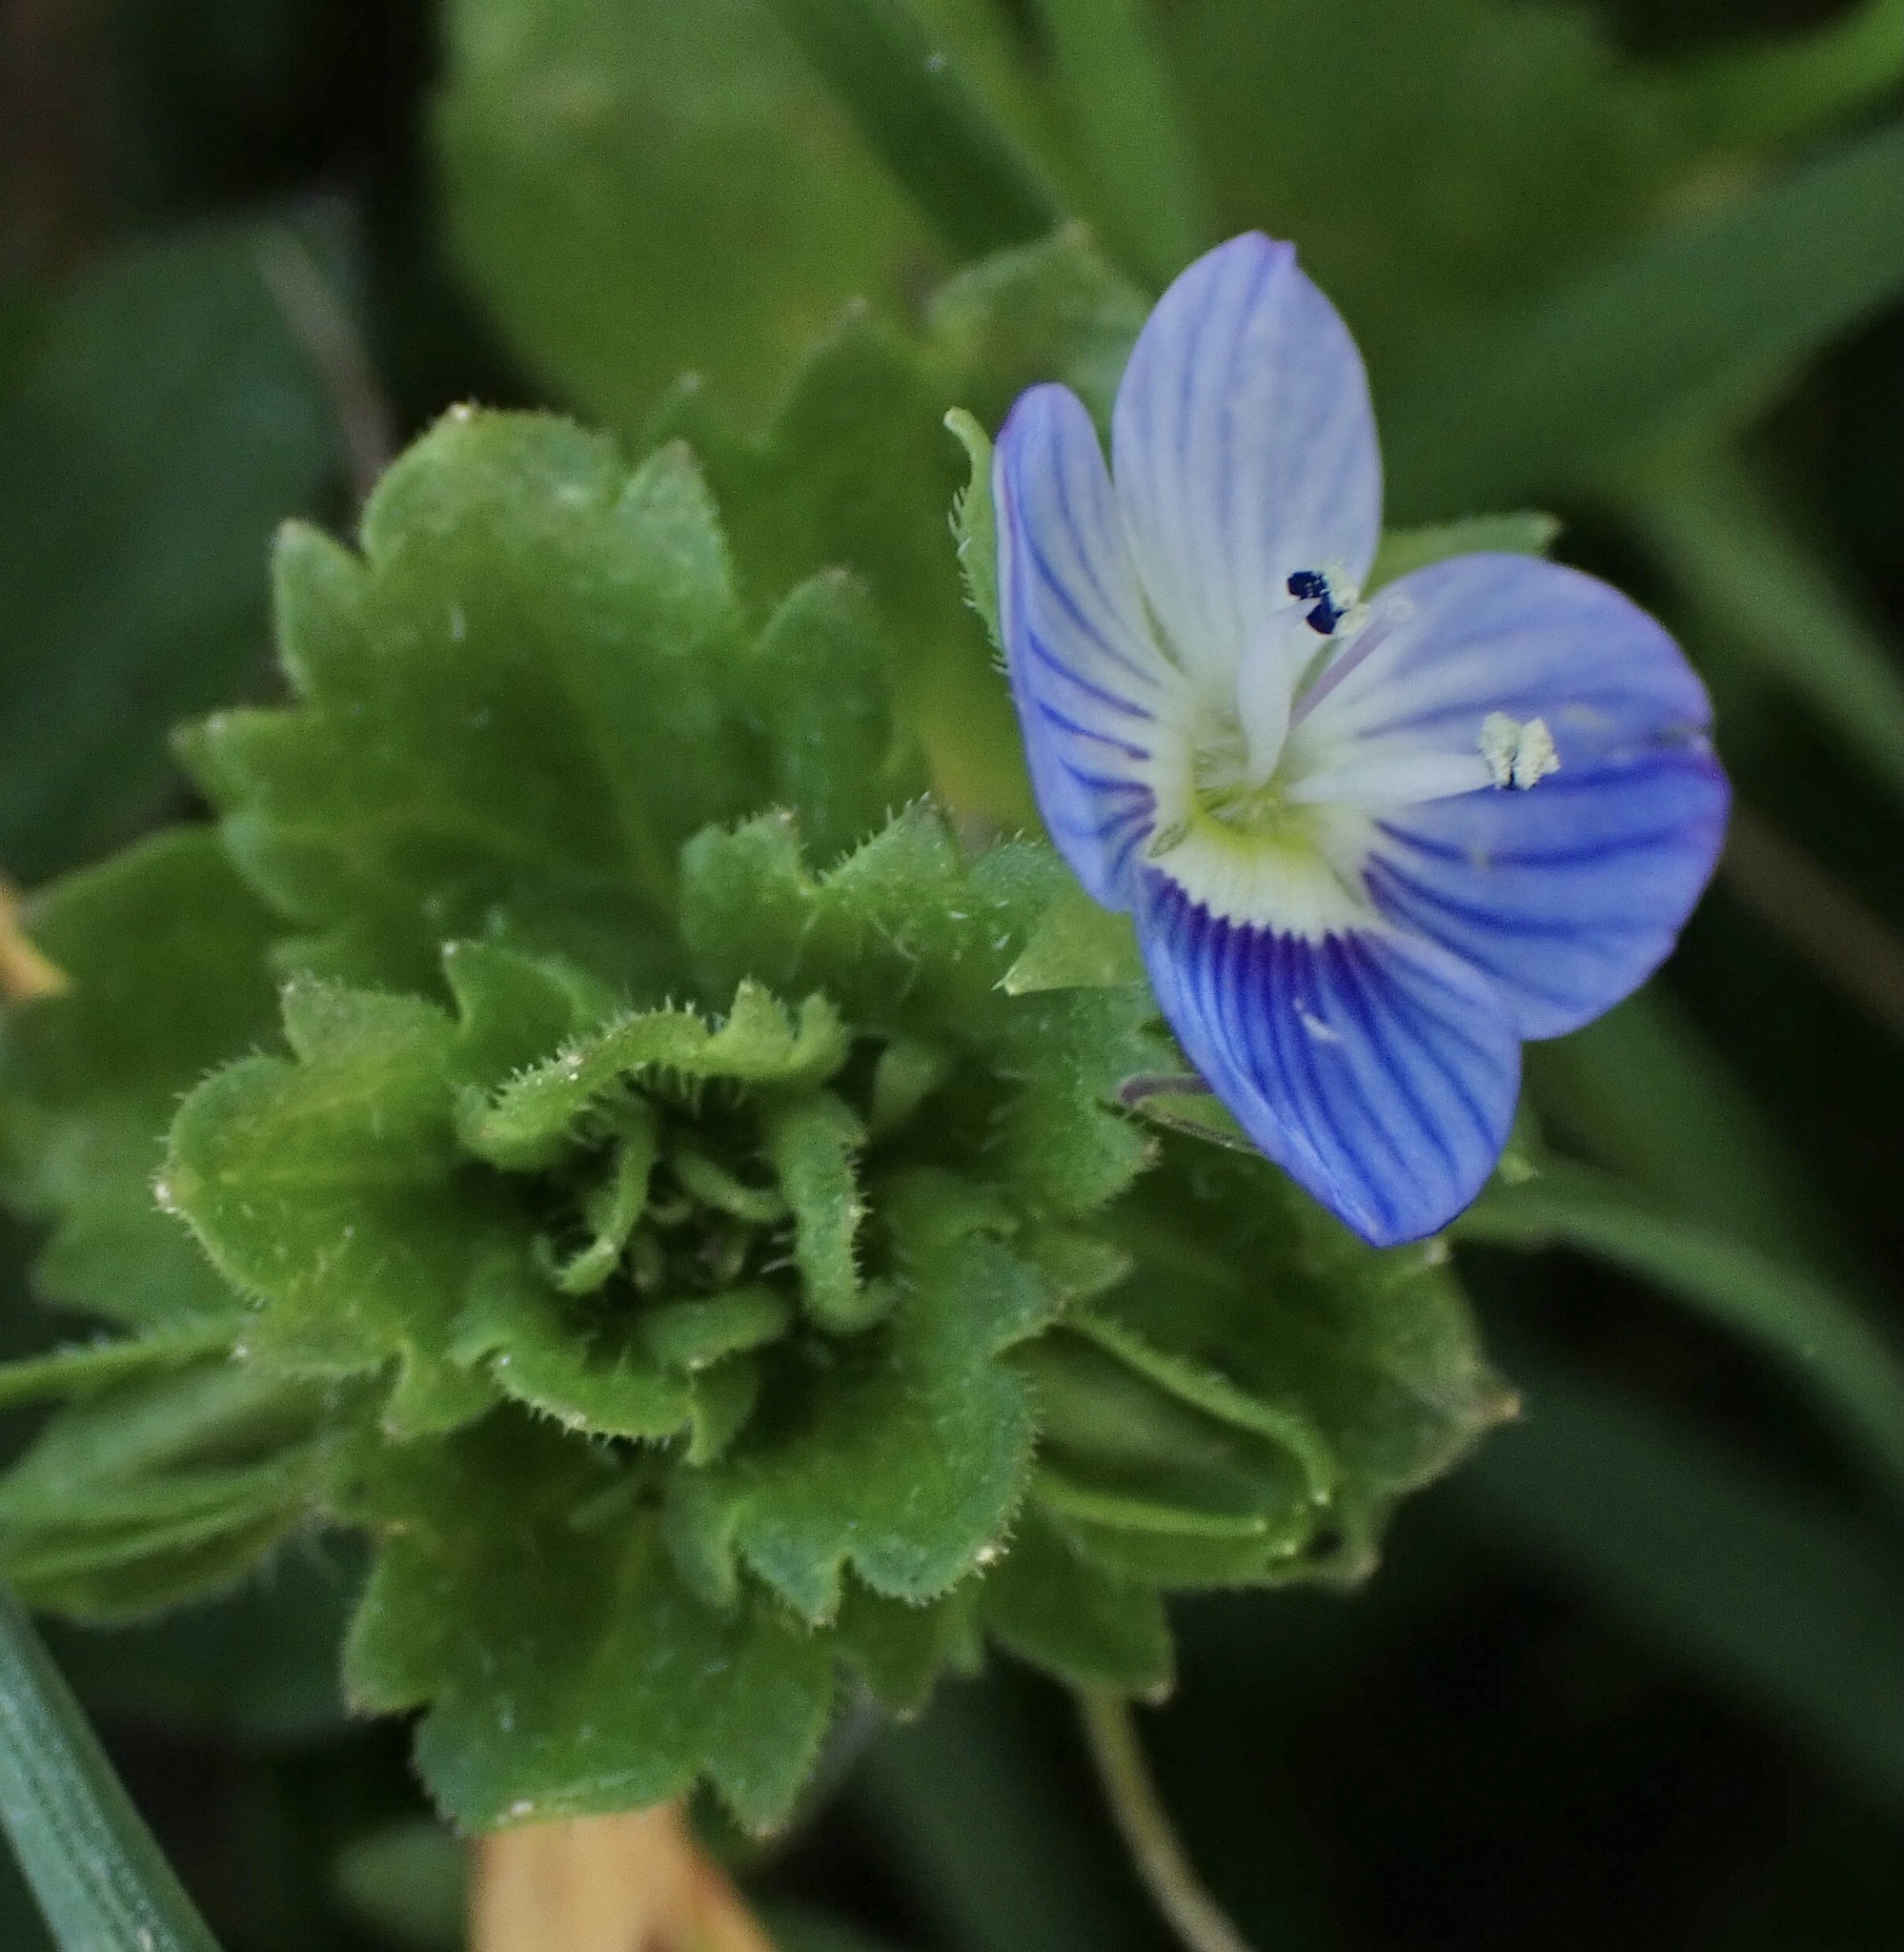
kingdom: Plantae
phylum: Tracheophyta
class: Magnoliopsida
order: Lamiales
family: Plantaginaceae
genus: Veronica
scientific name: Veronica persica
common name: Common field-speedwell
